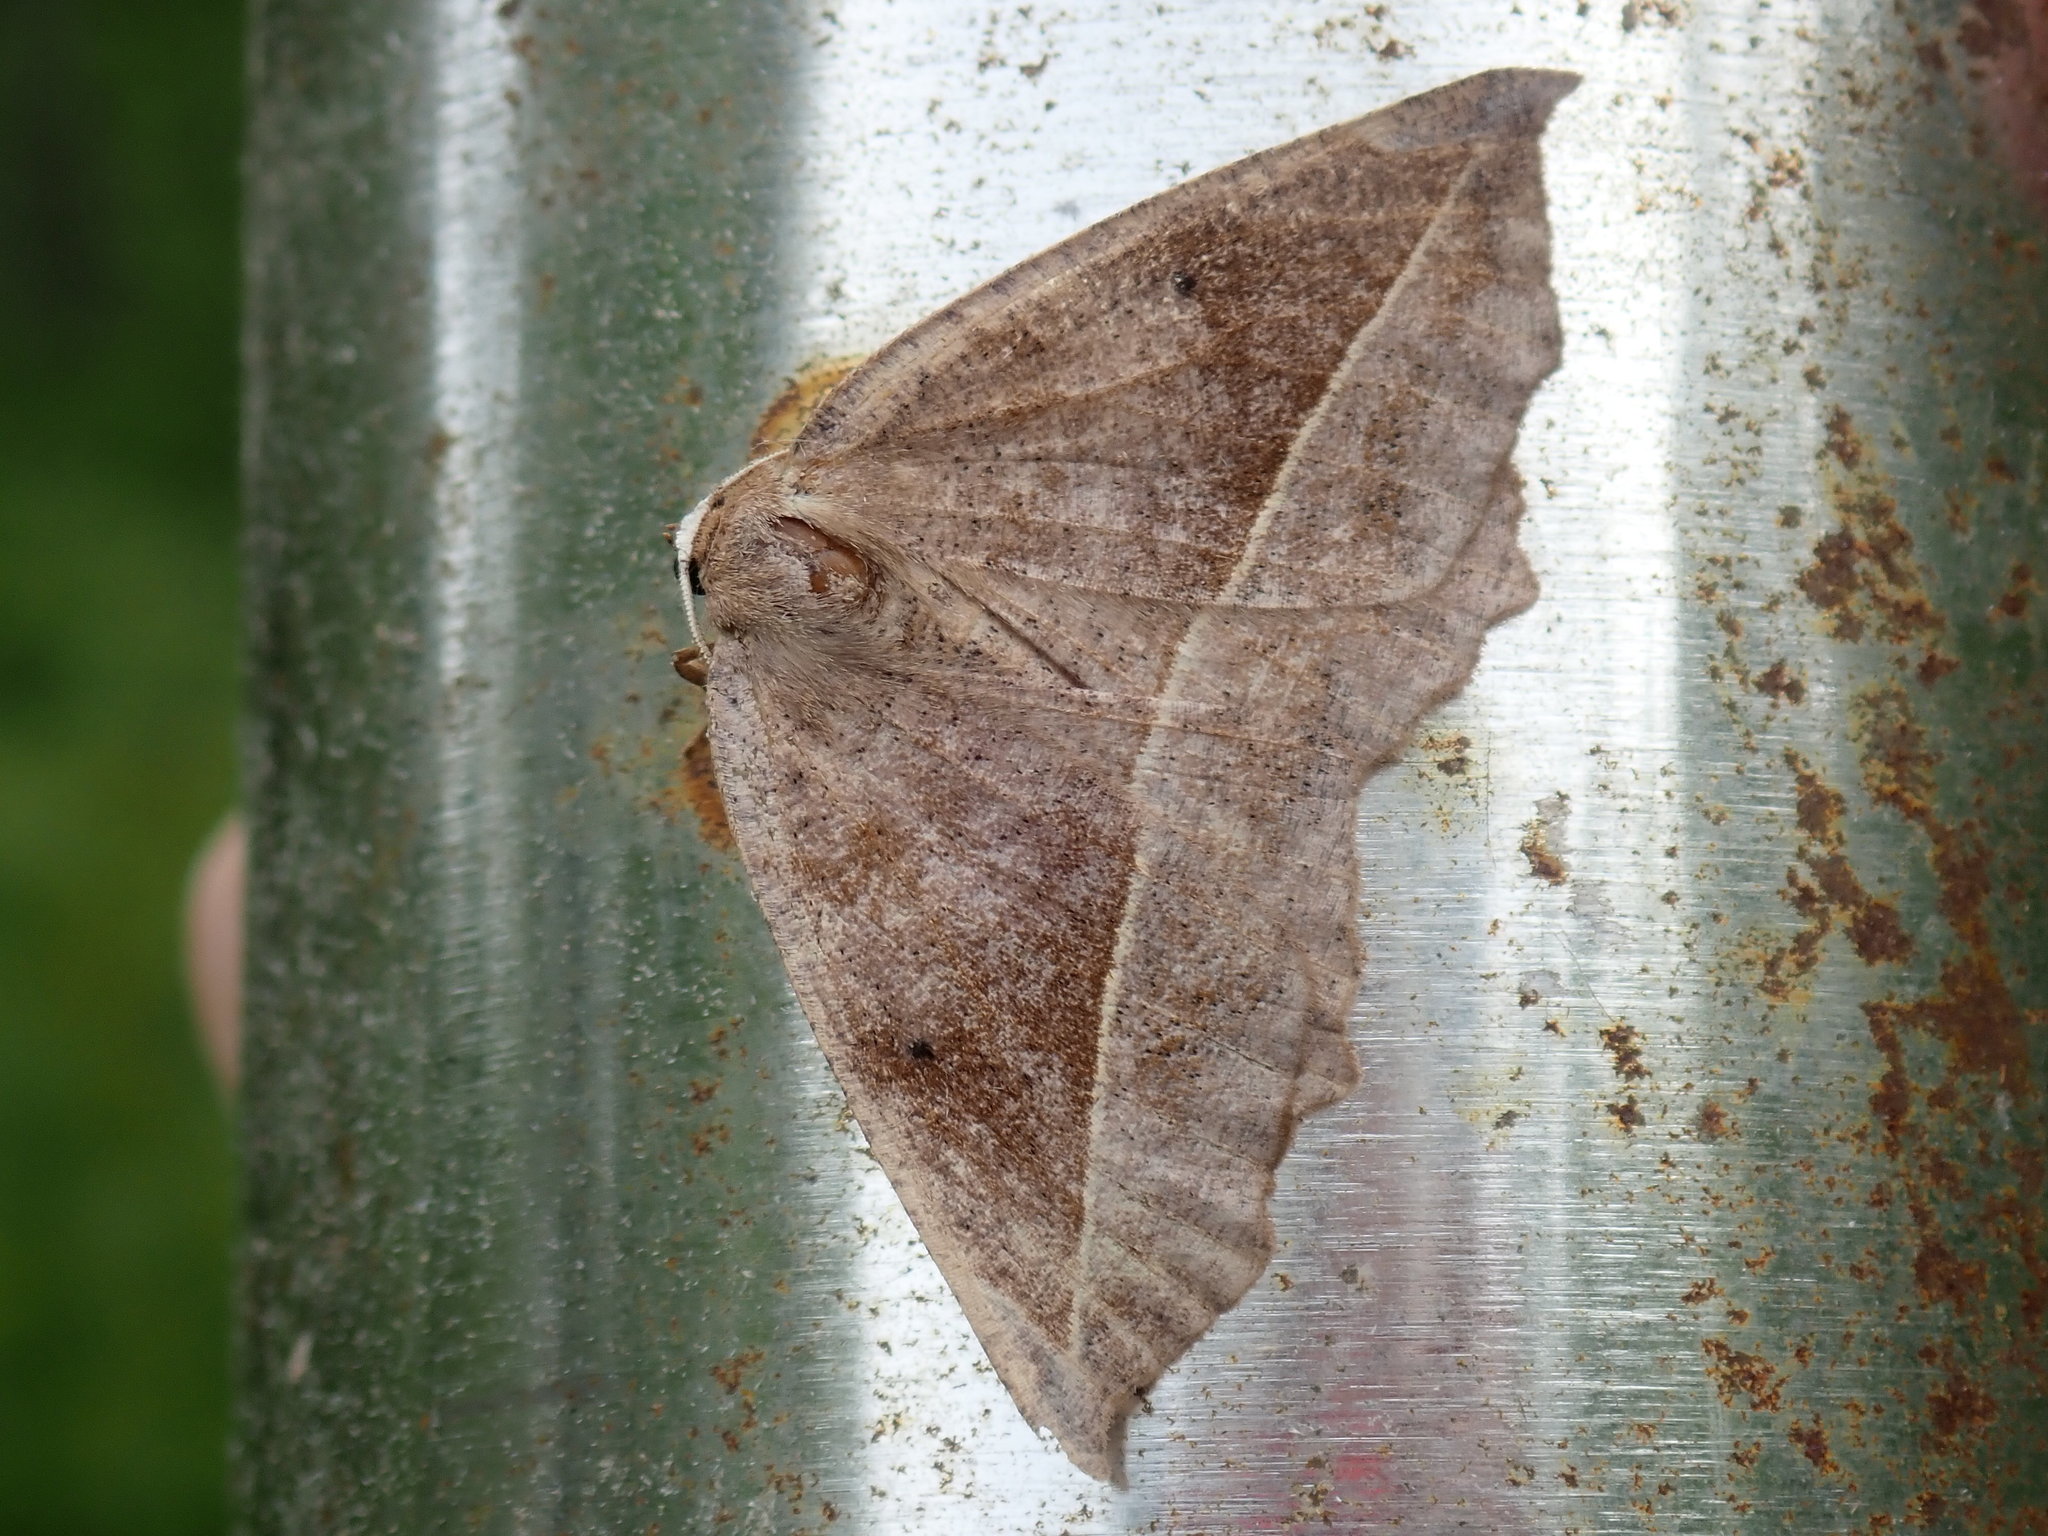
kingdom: Animalia
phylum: Arthropoda
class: Insecta
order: Lepidoptera
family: Geometridae
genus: Eutrapela
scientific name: Eutrapela clemataria
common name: Curved-toothed geometer
